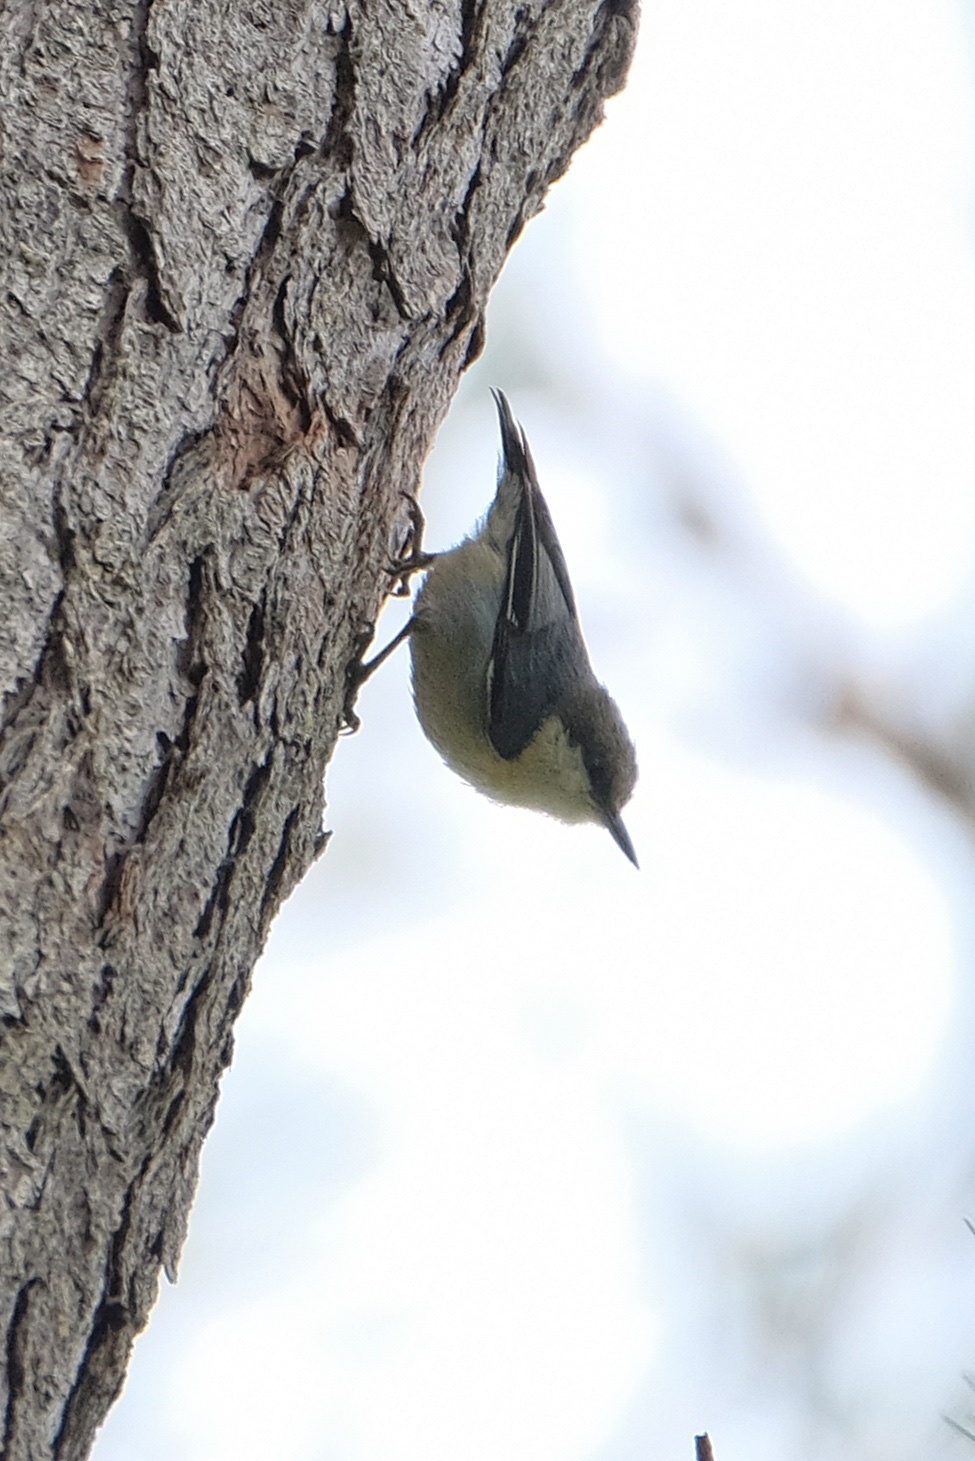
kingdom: Animalia
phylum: Chordata
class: Aves
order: Passeriformes
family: Sittidae
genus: Sitta
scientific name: Sitta pygmaea
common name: Pygmy nuthatch
